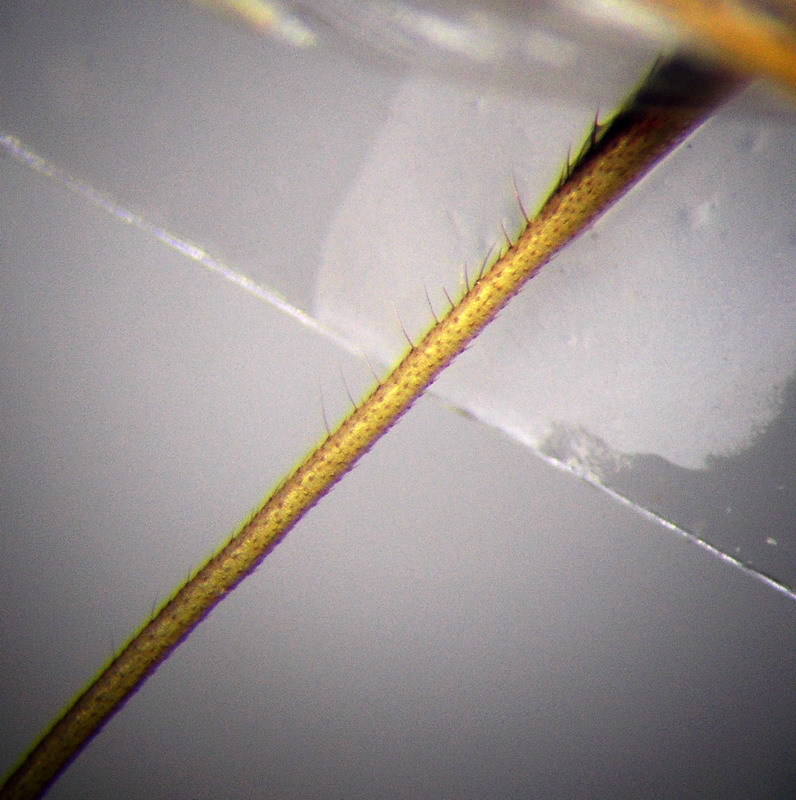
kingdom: Animalia
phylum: Arthropoda
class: Insecta
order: Hemiptera
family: Rhopalidae
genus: Chorosoma
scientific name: Chorosoma schillingii
